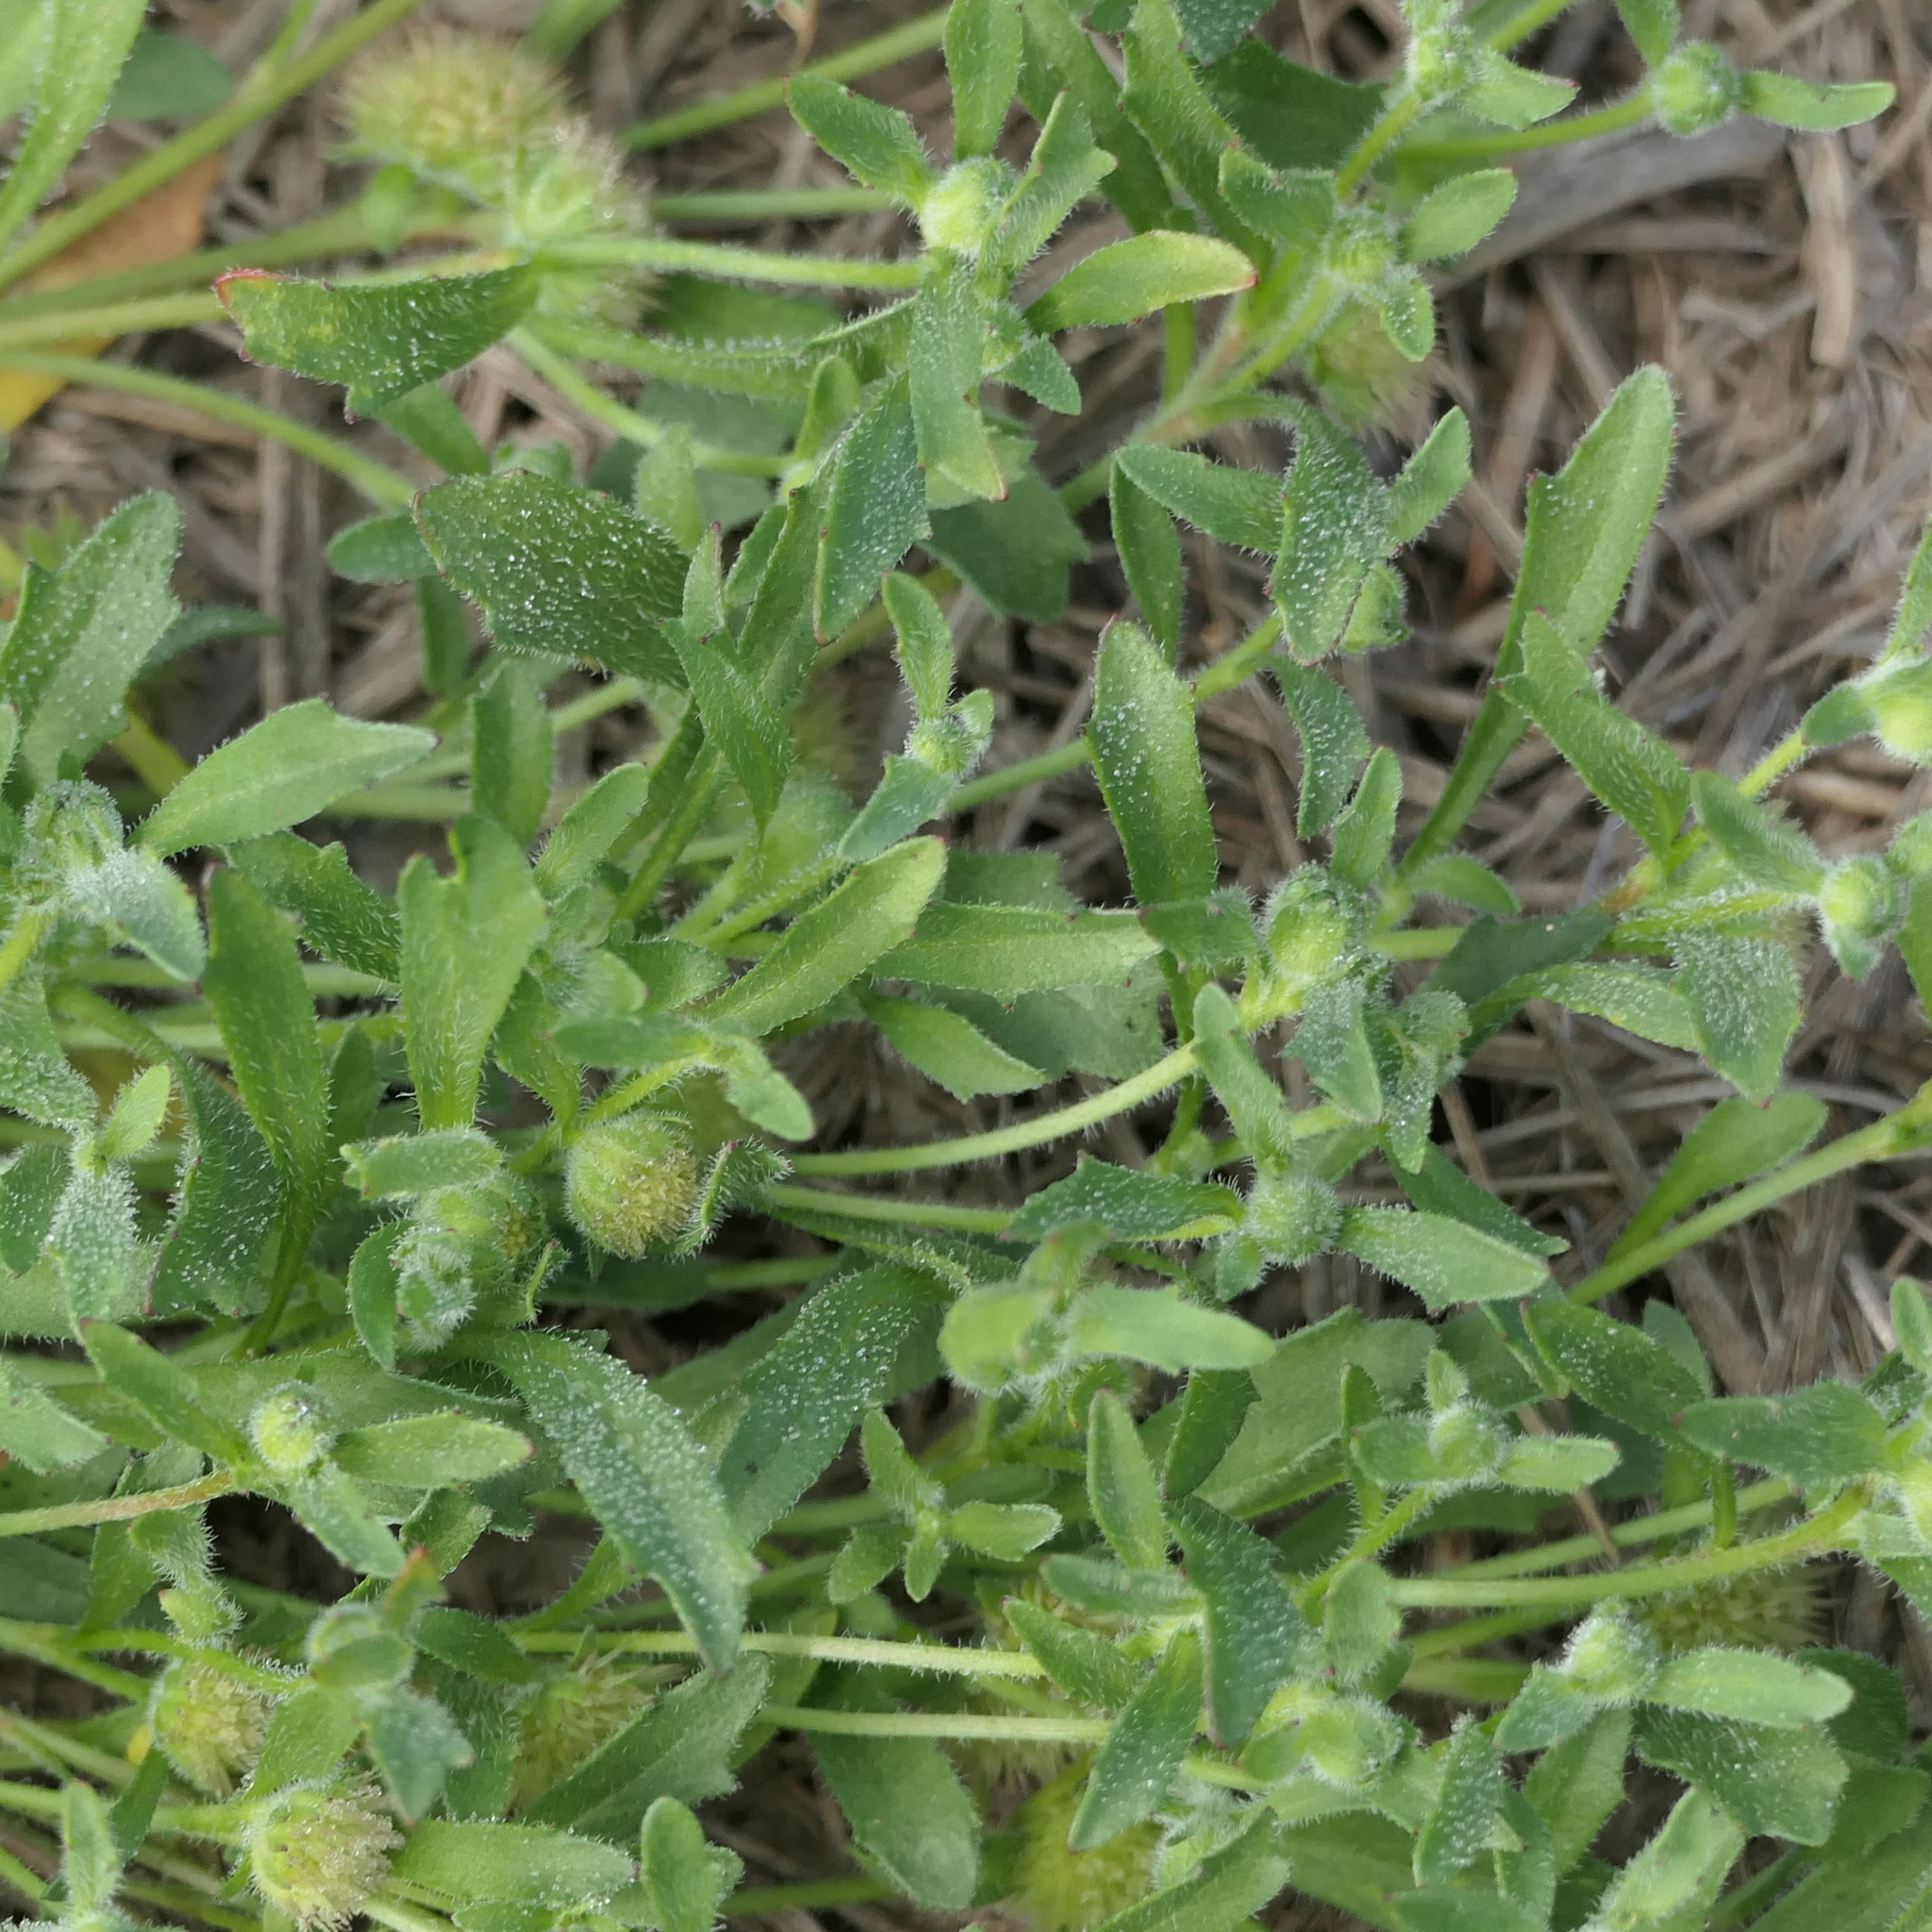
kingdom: Plantae
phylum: Tracheophyta
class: Magnoliopsida
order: Asterales
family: Asteraceae
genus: Calotis
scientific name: Calotis hispidula
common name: Bogan-flea
